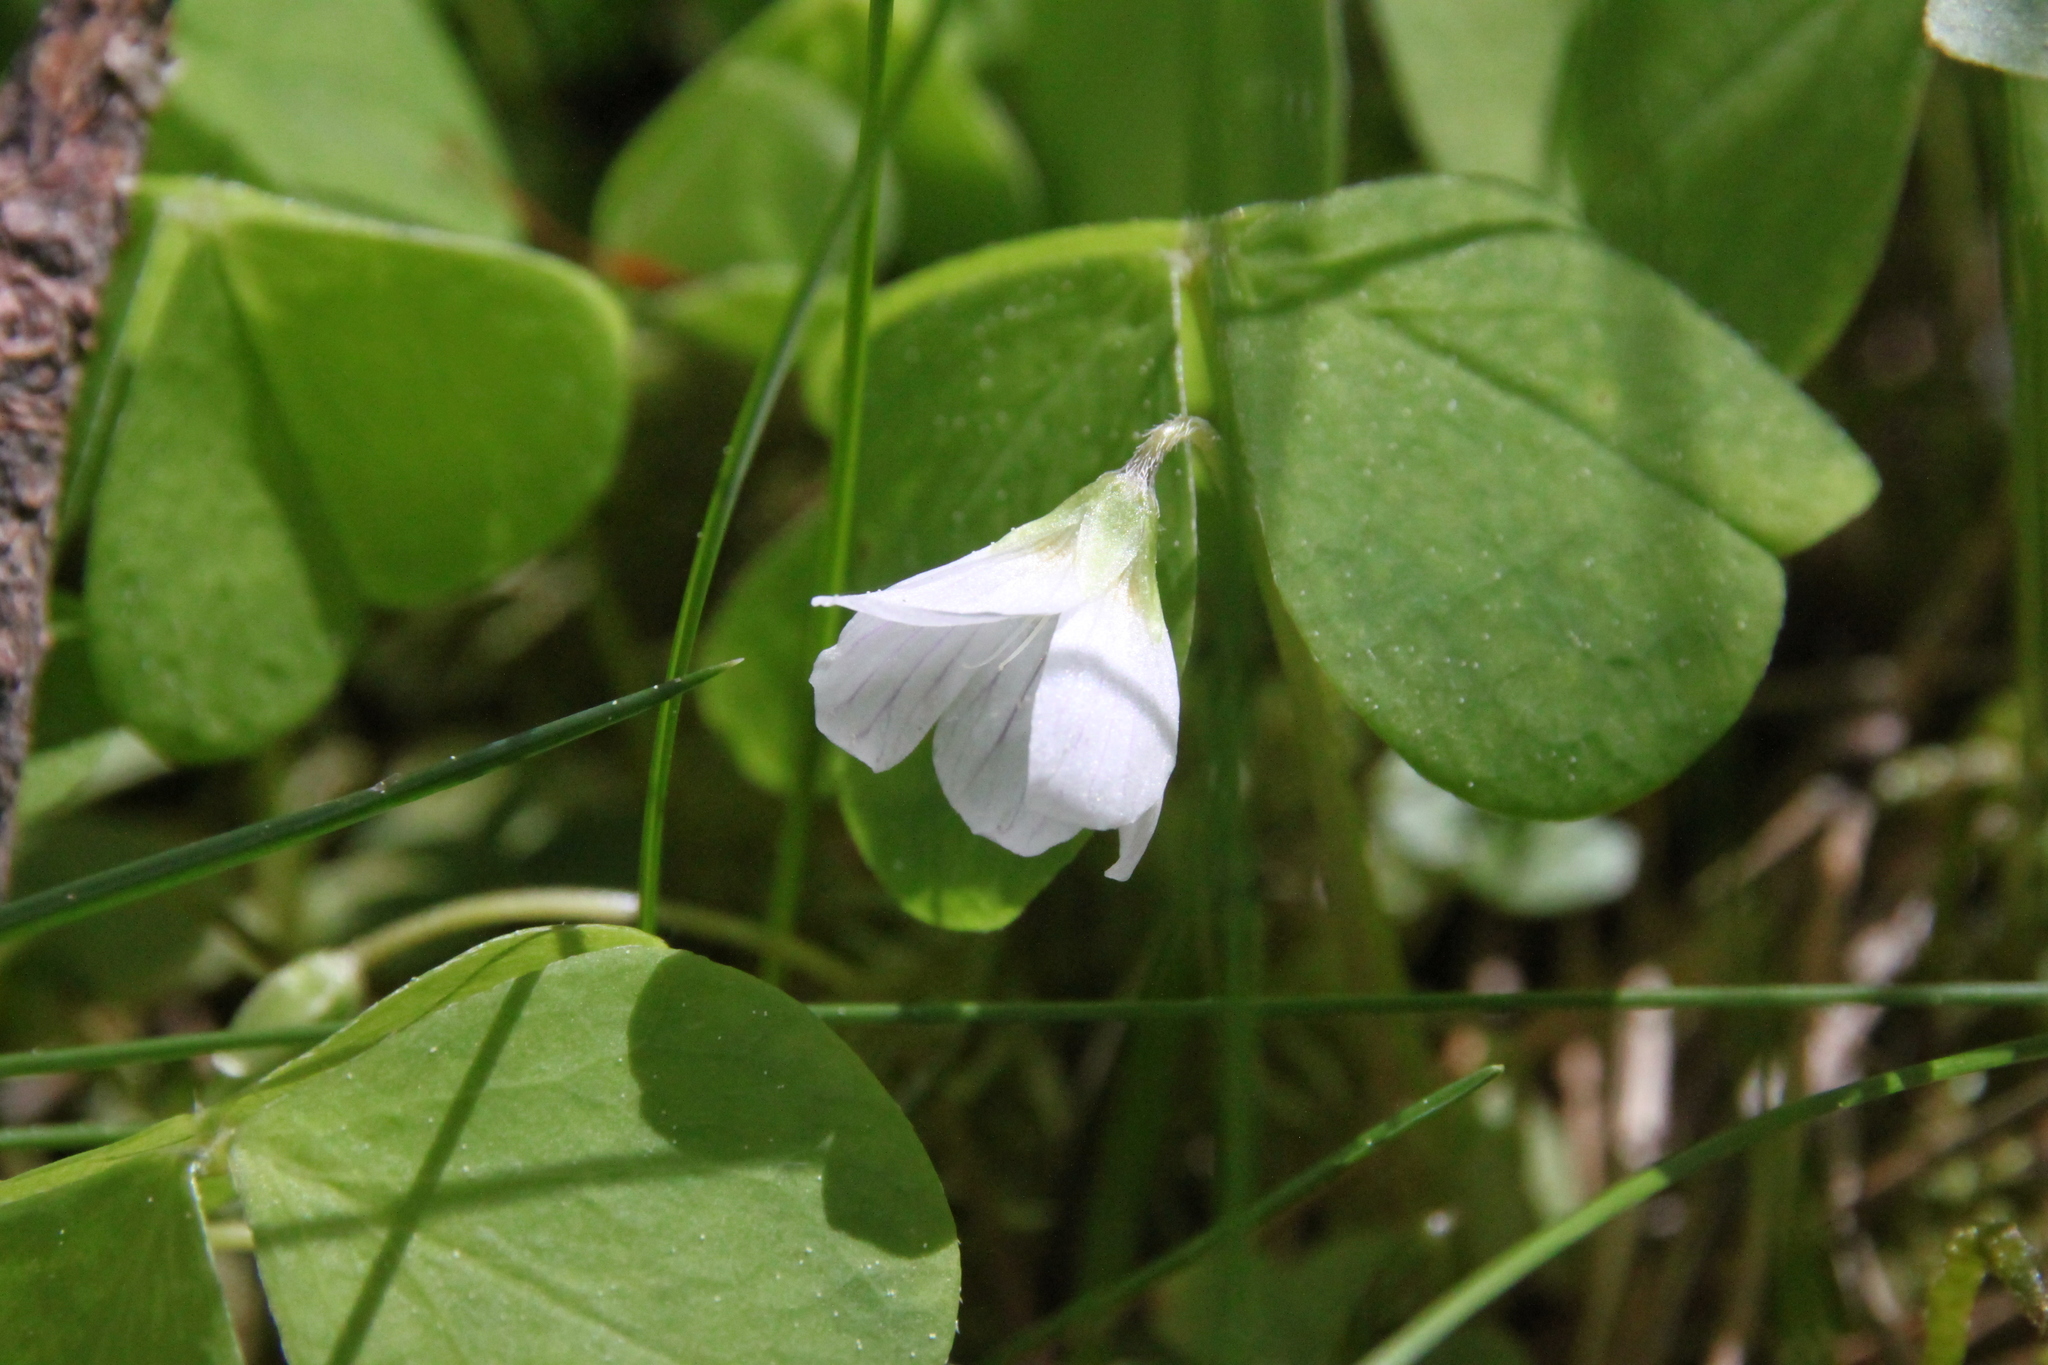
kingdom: Plantae
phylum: Tracheophyta
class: Magnoliopsida
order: Oxalidales
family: Oxalidaceae
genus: Oxalis
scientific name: Oxalis acetosella
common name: Wood-sorrel
